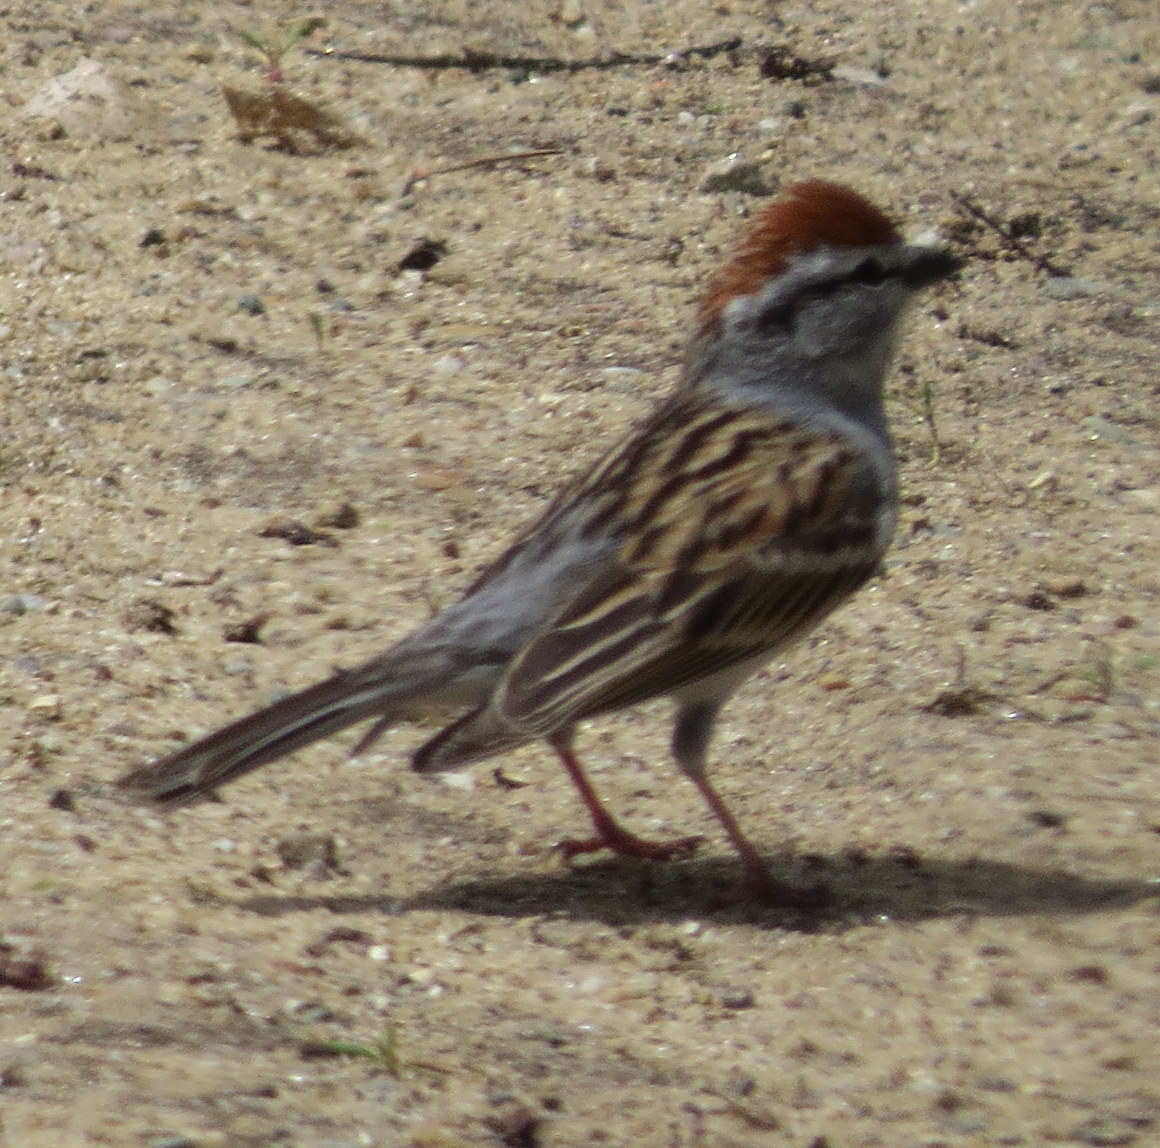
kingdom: Animalia
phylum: Chordata
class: Aves
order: Passeriformes
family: Passerellidae
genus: Spizella
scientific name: Spizella passerina
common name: Chipping sparrow
